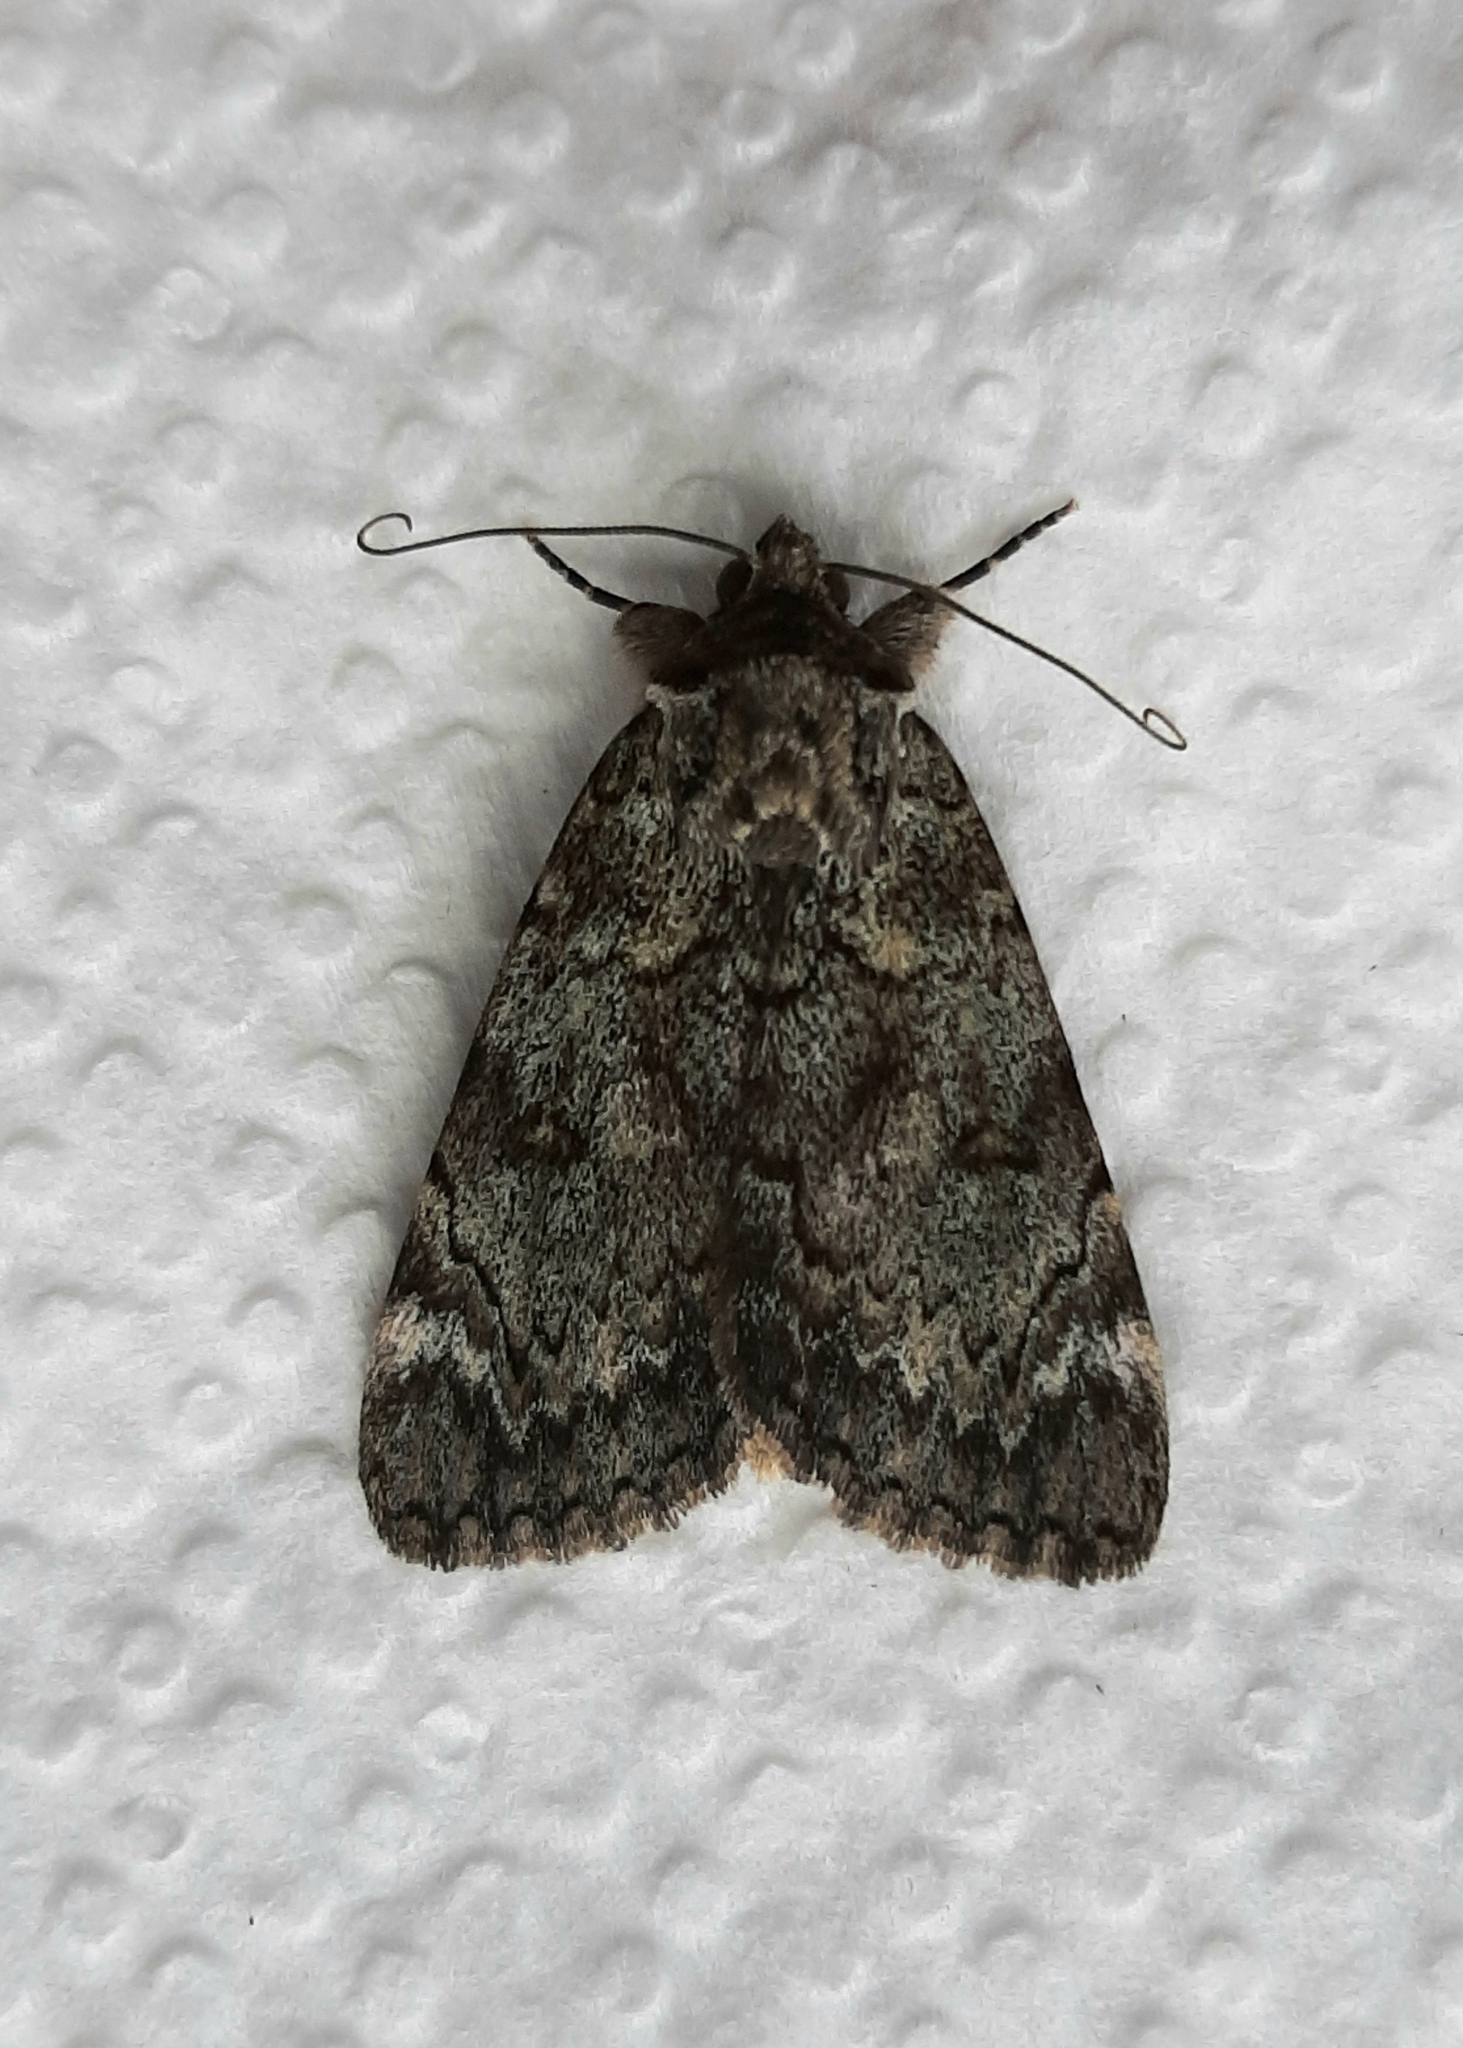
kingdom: Animalia
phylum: Arthropoda
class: Insecta
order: Lepidoptera
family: Erebidae
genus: Catocala
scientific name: Catocala minuta
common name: Little underwing
